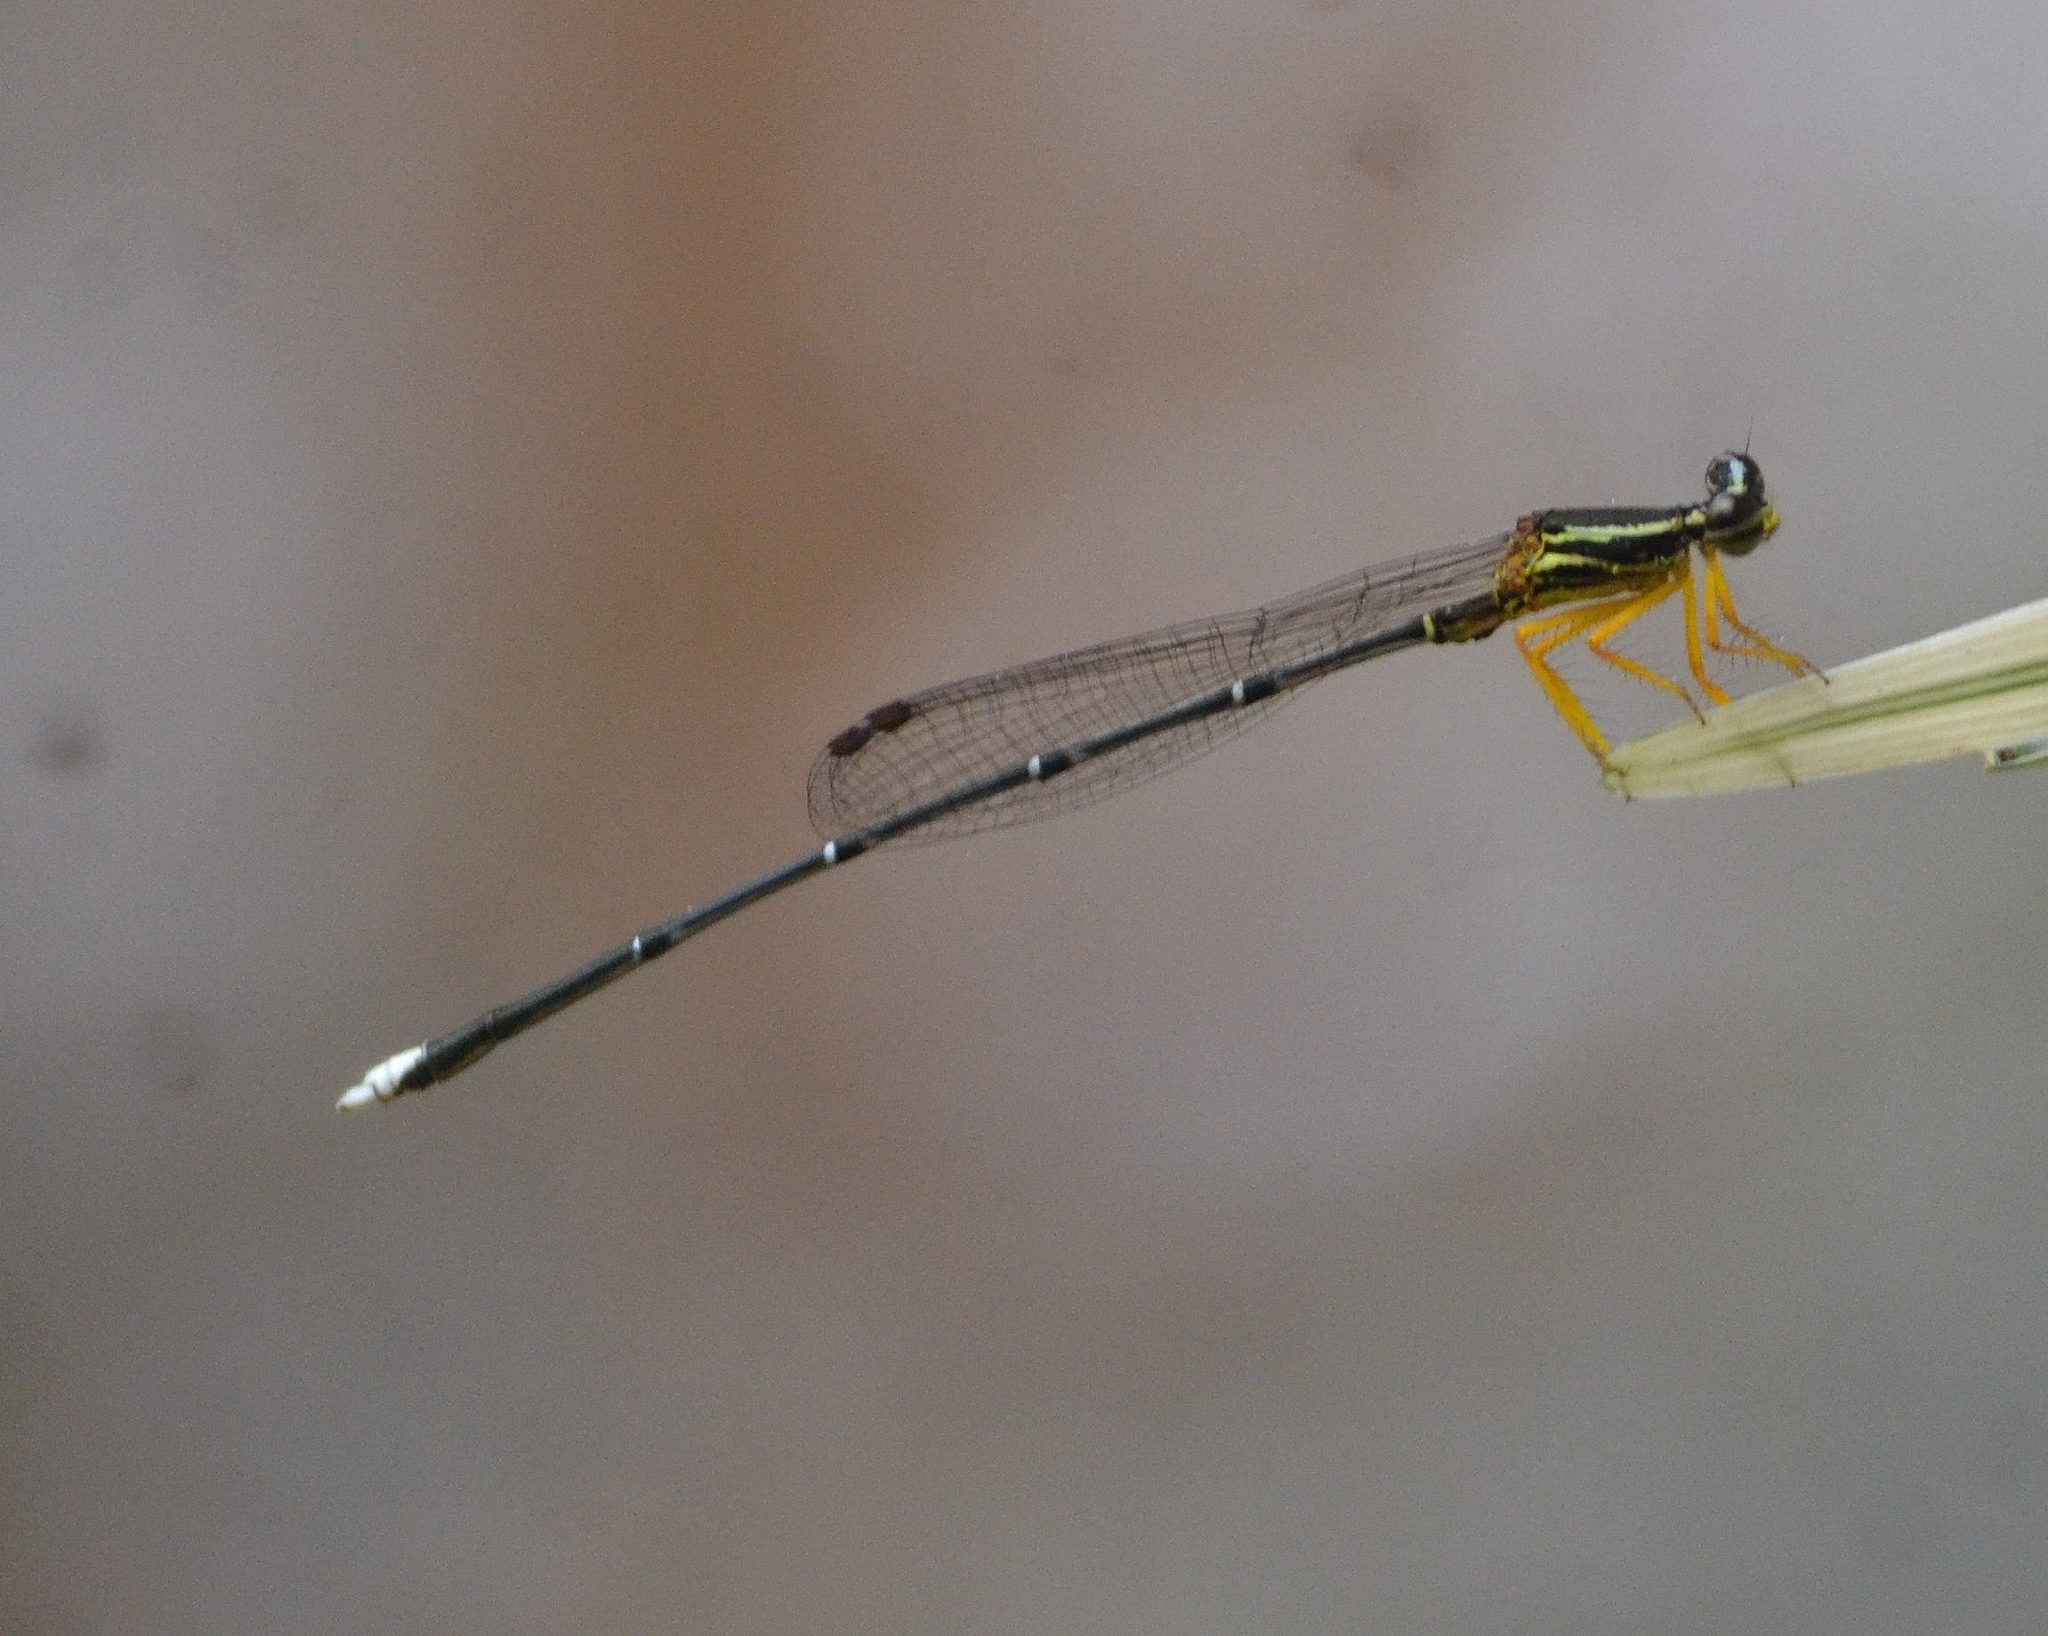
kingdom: Animalia
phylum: Arthropoda
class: Insecta
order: Odonata
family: Platycnemididae
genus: Copera
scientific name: Copera marginipes
